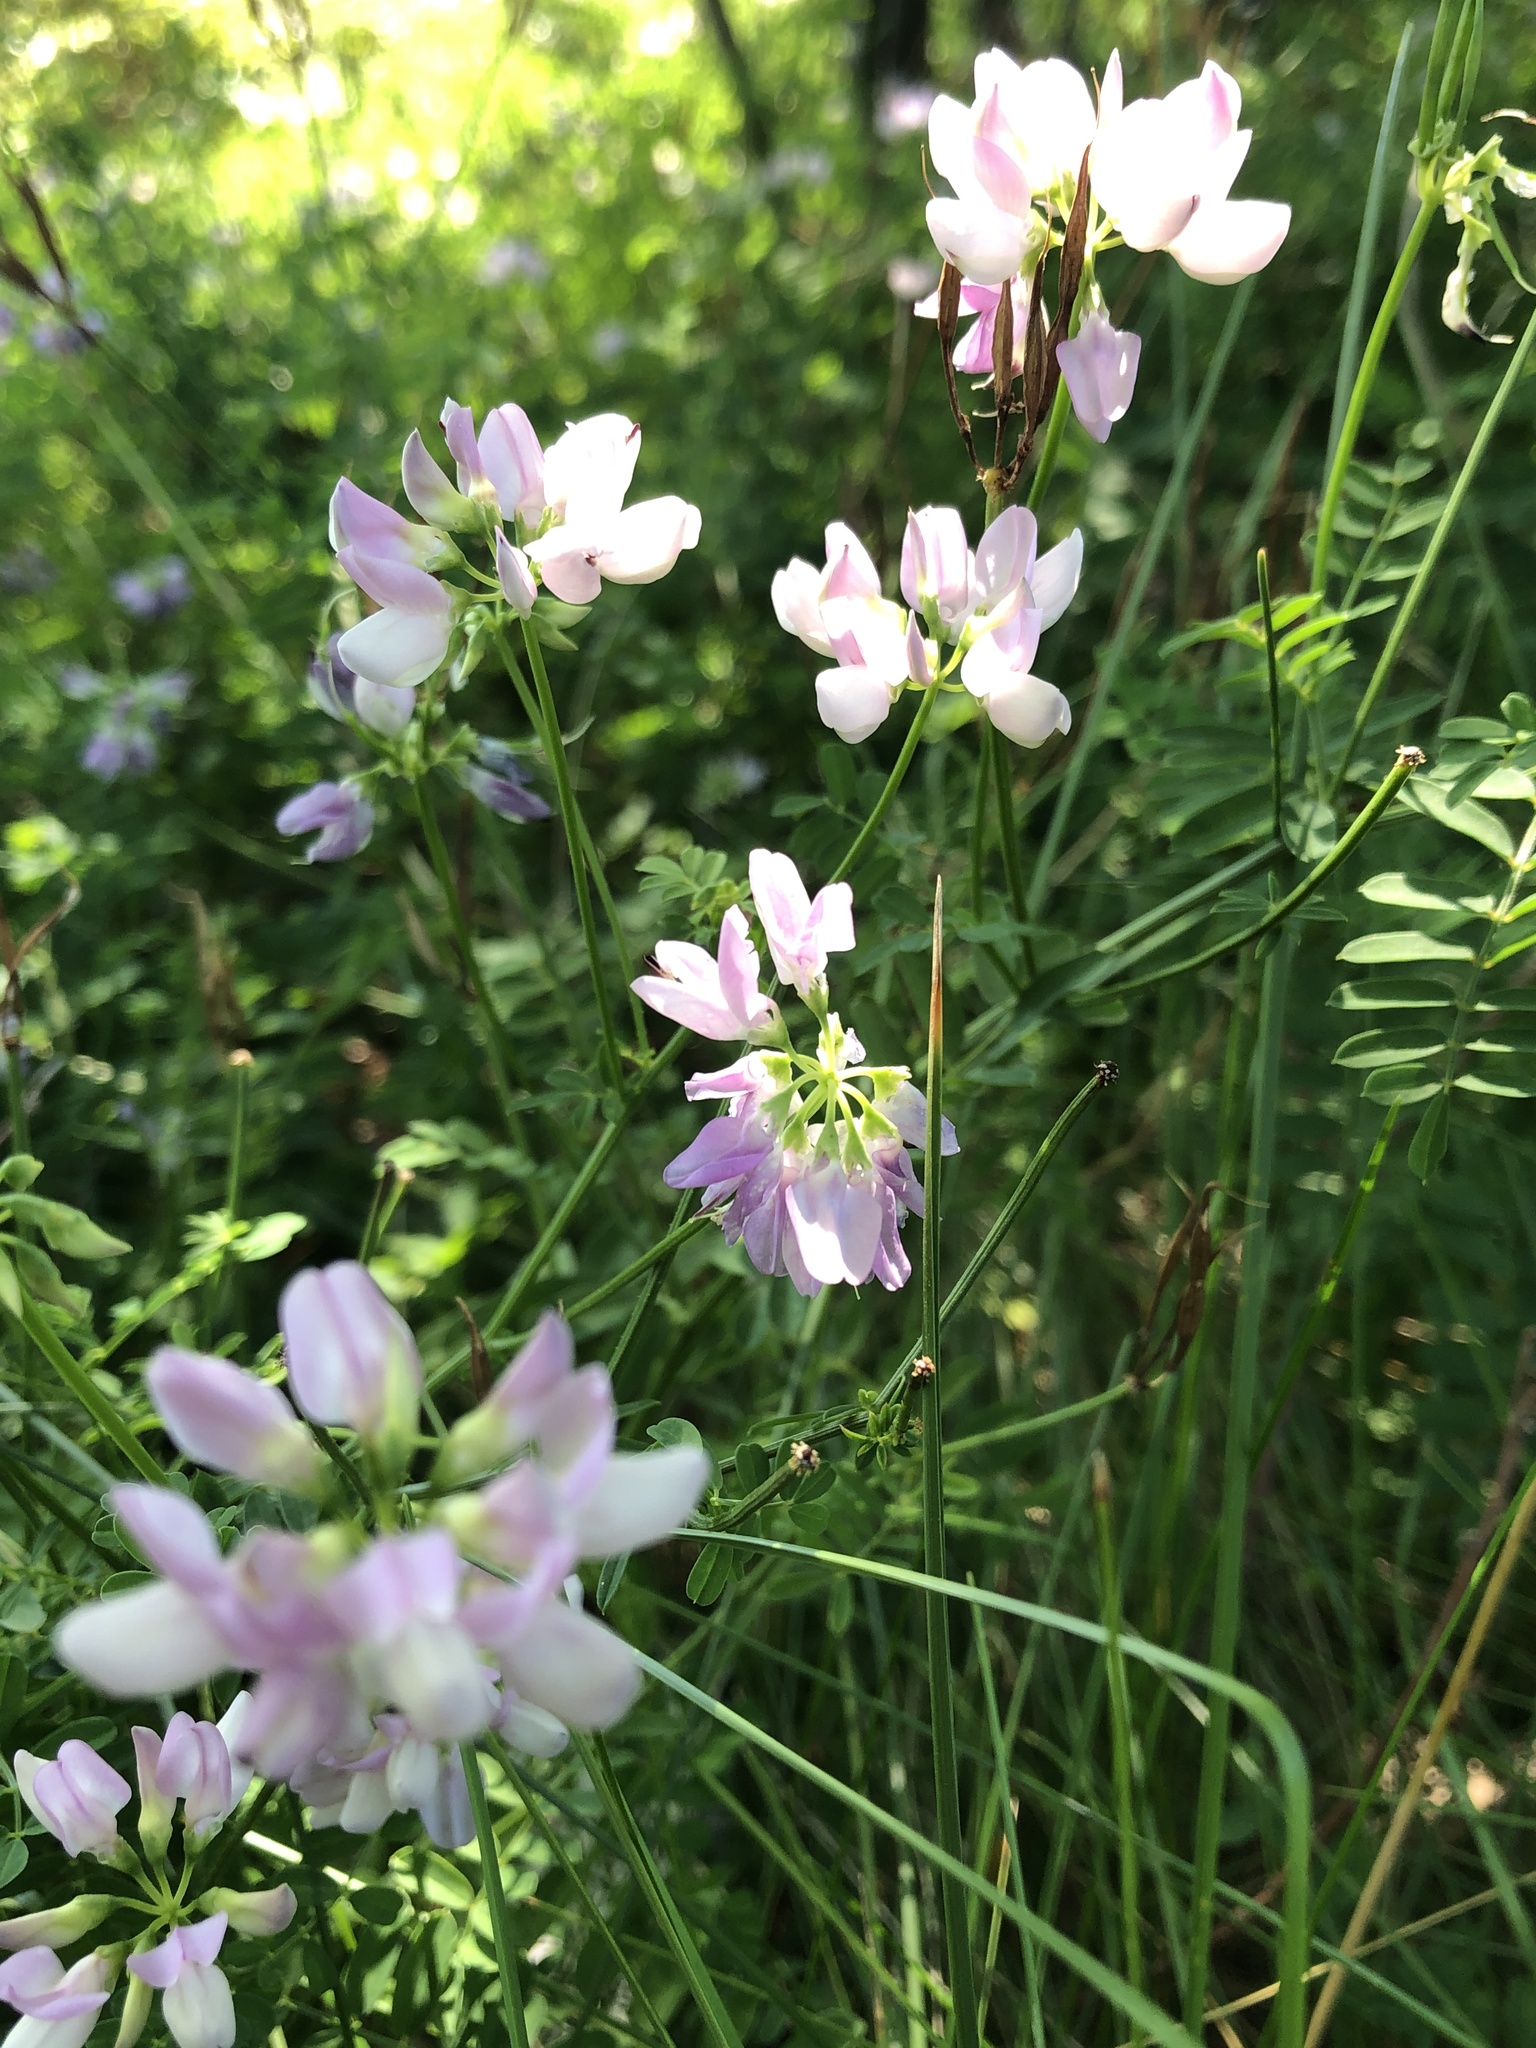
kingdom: Plantae
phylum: Tracheophyta
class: Magnoliopsida
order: Fabales
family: Fabaceae
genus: Coronilla
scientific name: Coronilla varia
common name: Crownvetch
